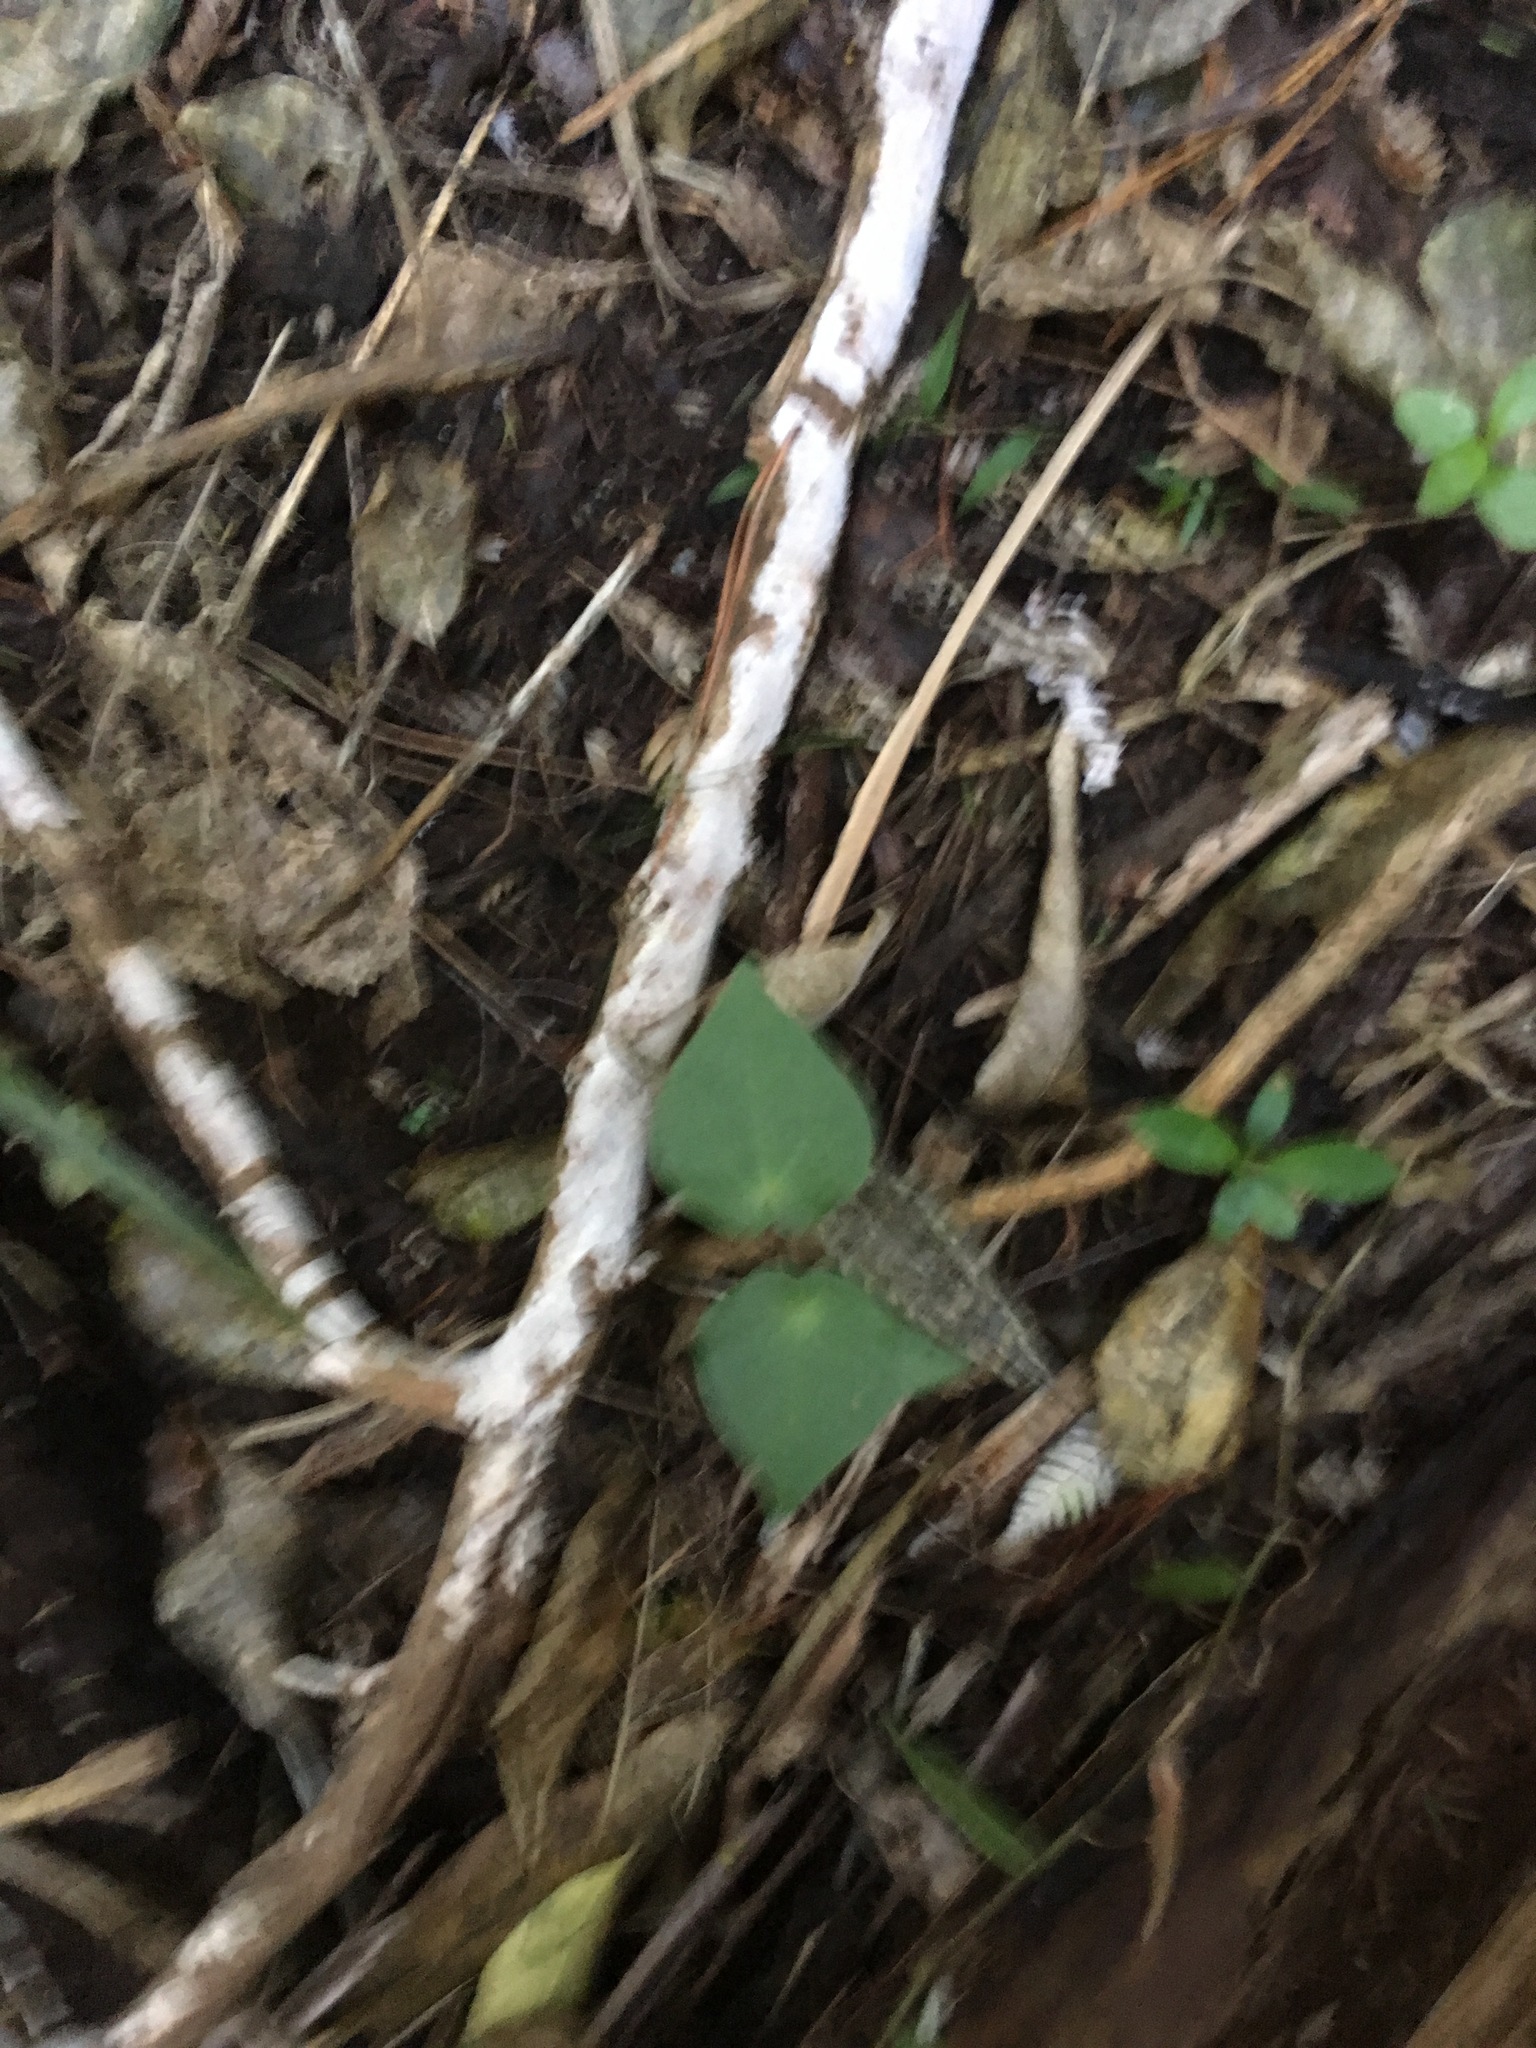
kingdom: Plantae
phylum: Tracheophyta
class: Magnoliopsida
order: Piperales
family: Piperaceae
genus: Macropiper
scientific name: Macropiper excelsum
